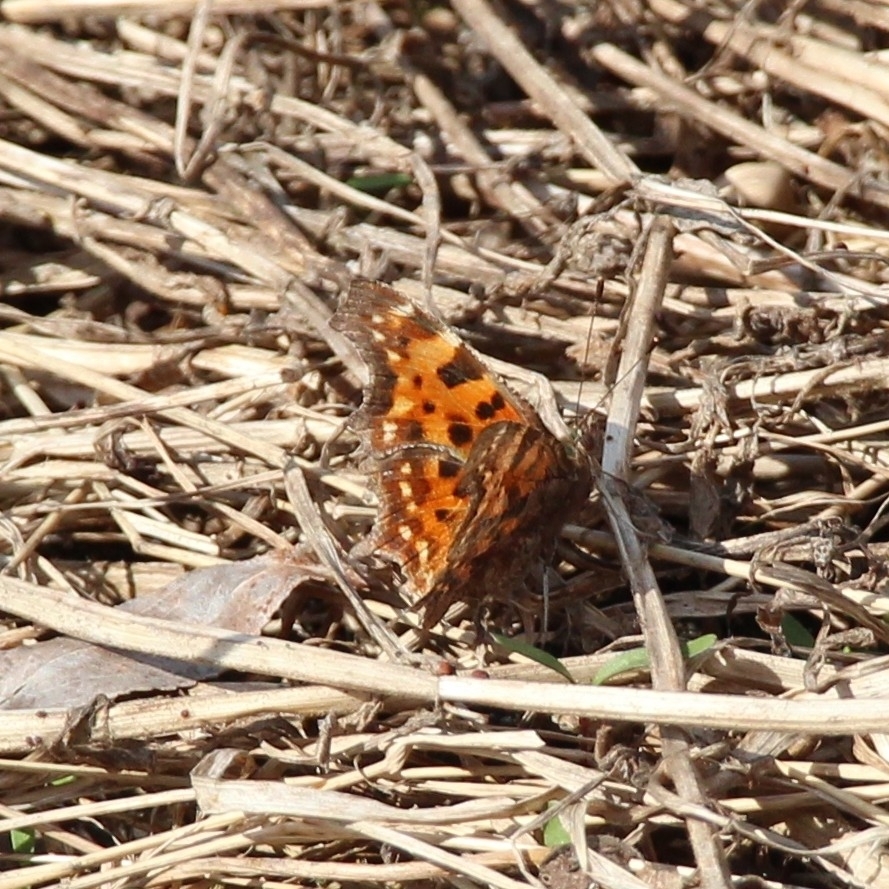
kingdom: Animalia
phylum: Arthropoda
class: Insecta
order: Lepidoptera
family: Nymphalidae
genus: Polygonia
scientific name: Polygonia c-album
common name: Comma
